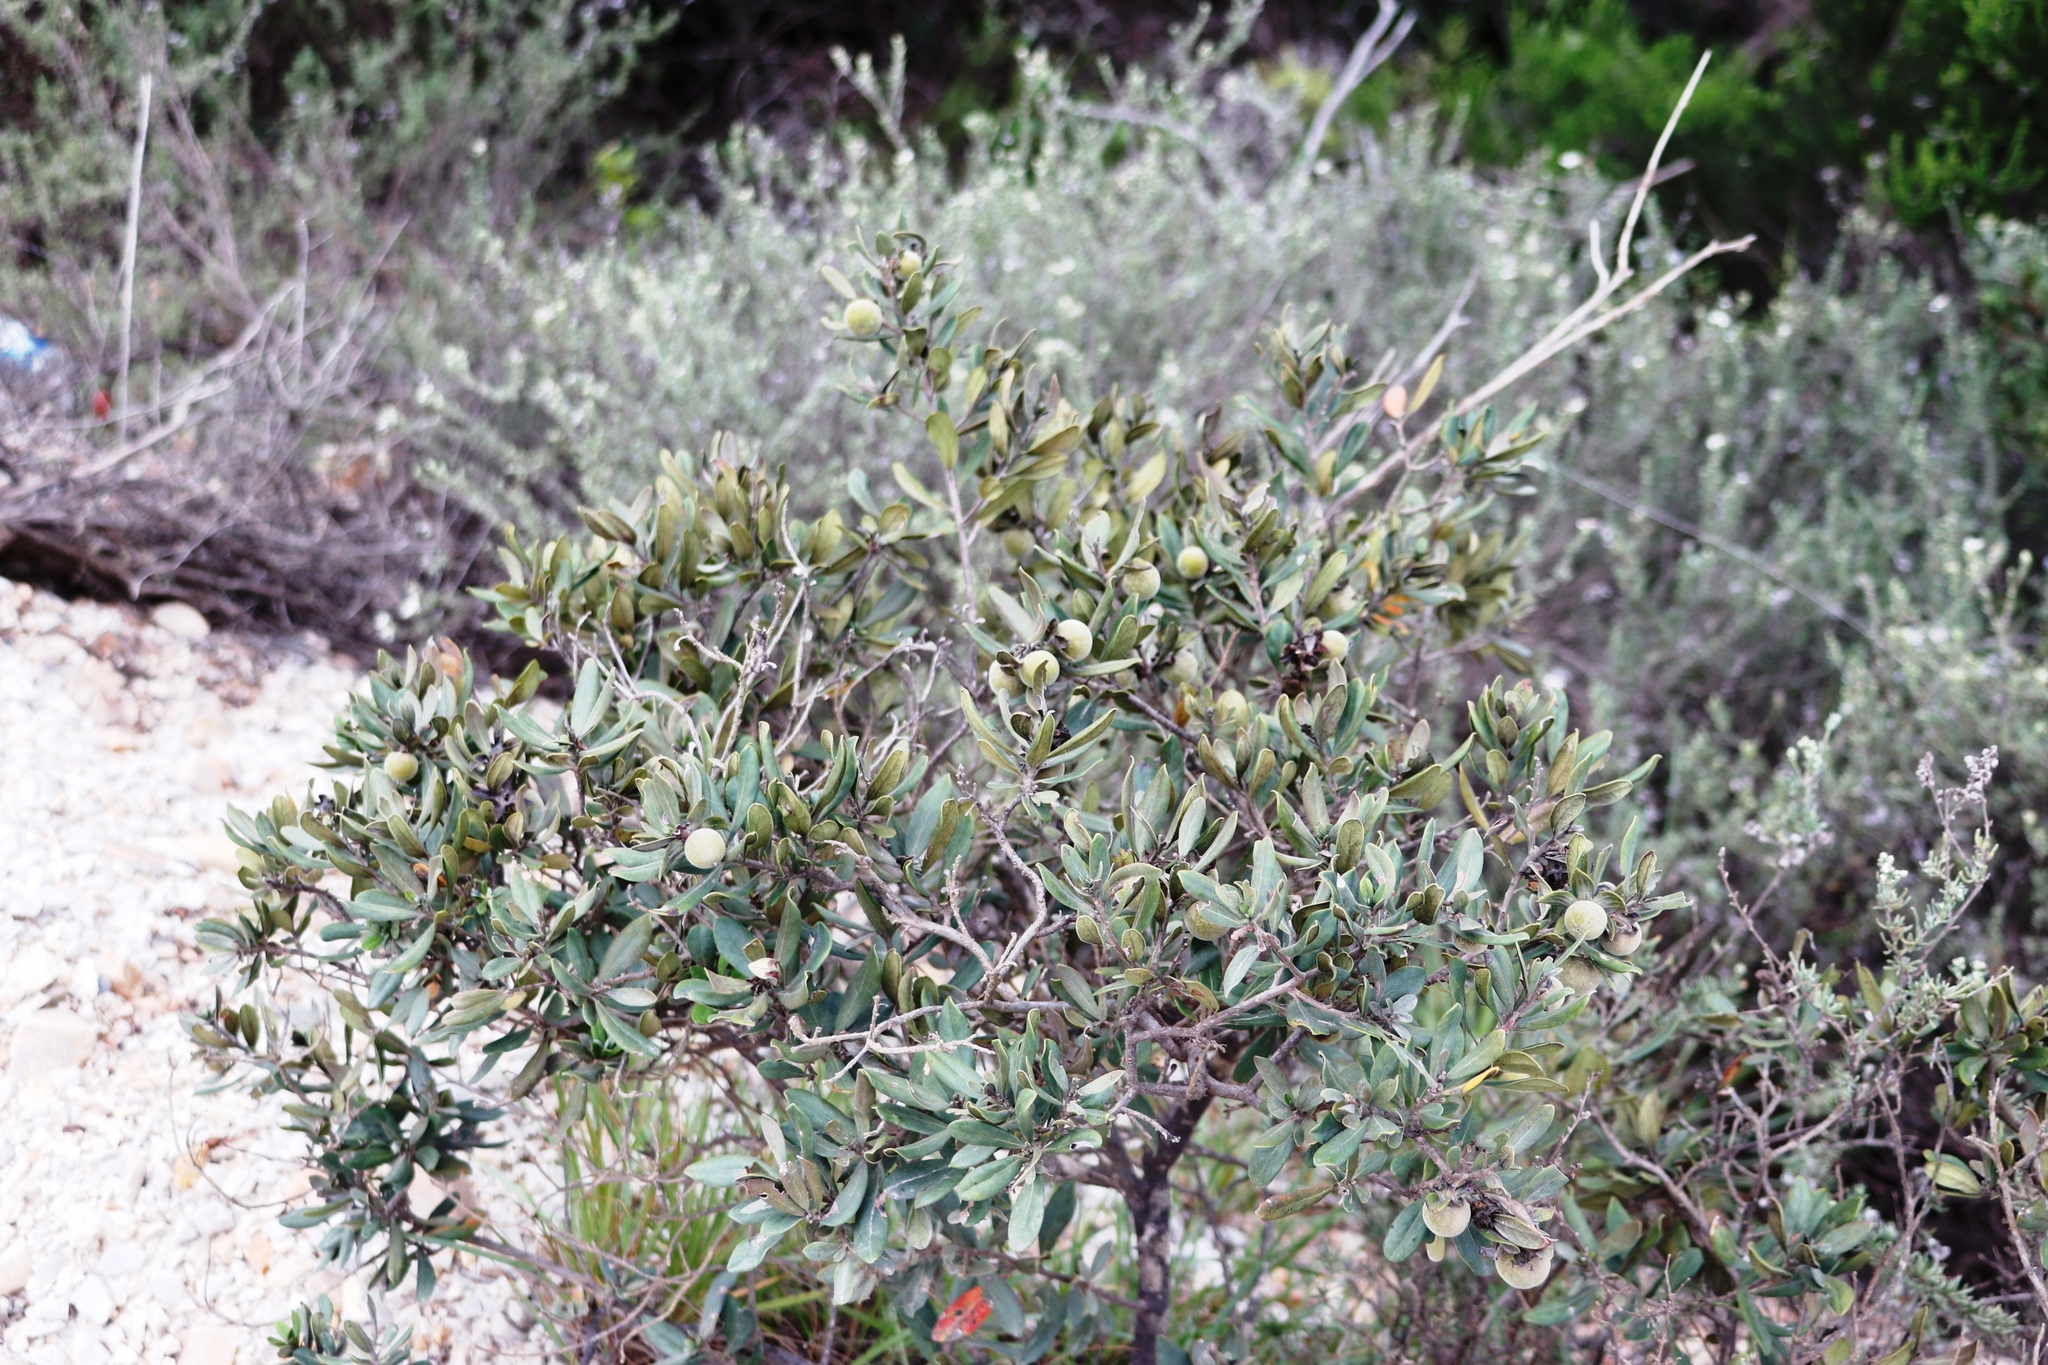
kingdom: Plantae
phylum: Tracheophyta
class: Magnoliopsida
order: Ericales
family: Ebenaceae
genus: Diospyros
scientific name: Diospyros dichrophylla
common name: Common star-apple
